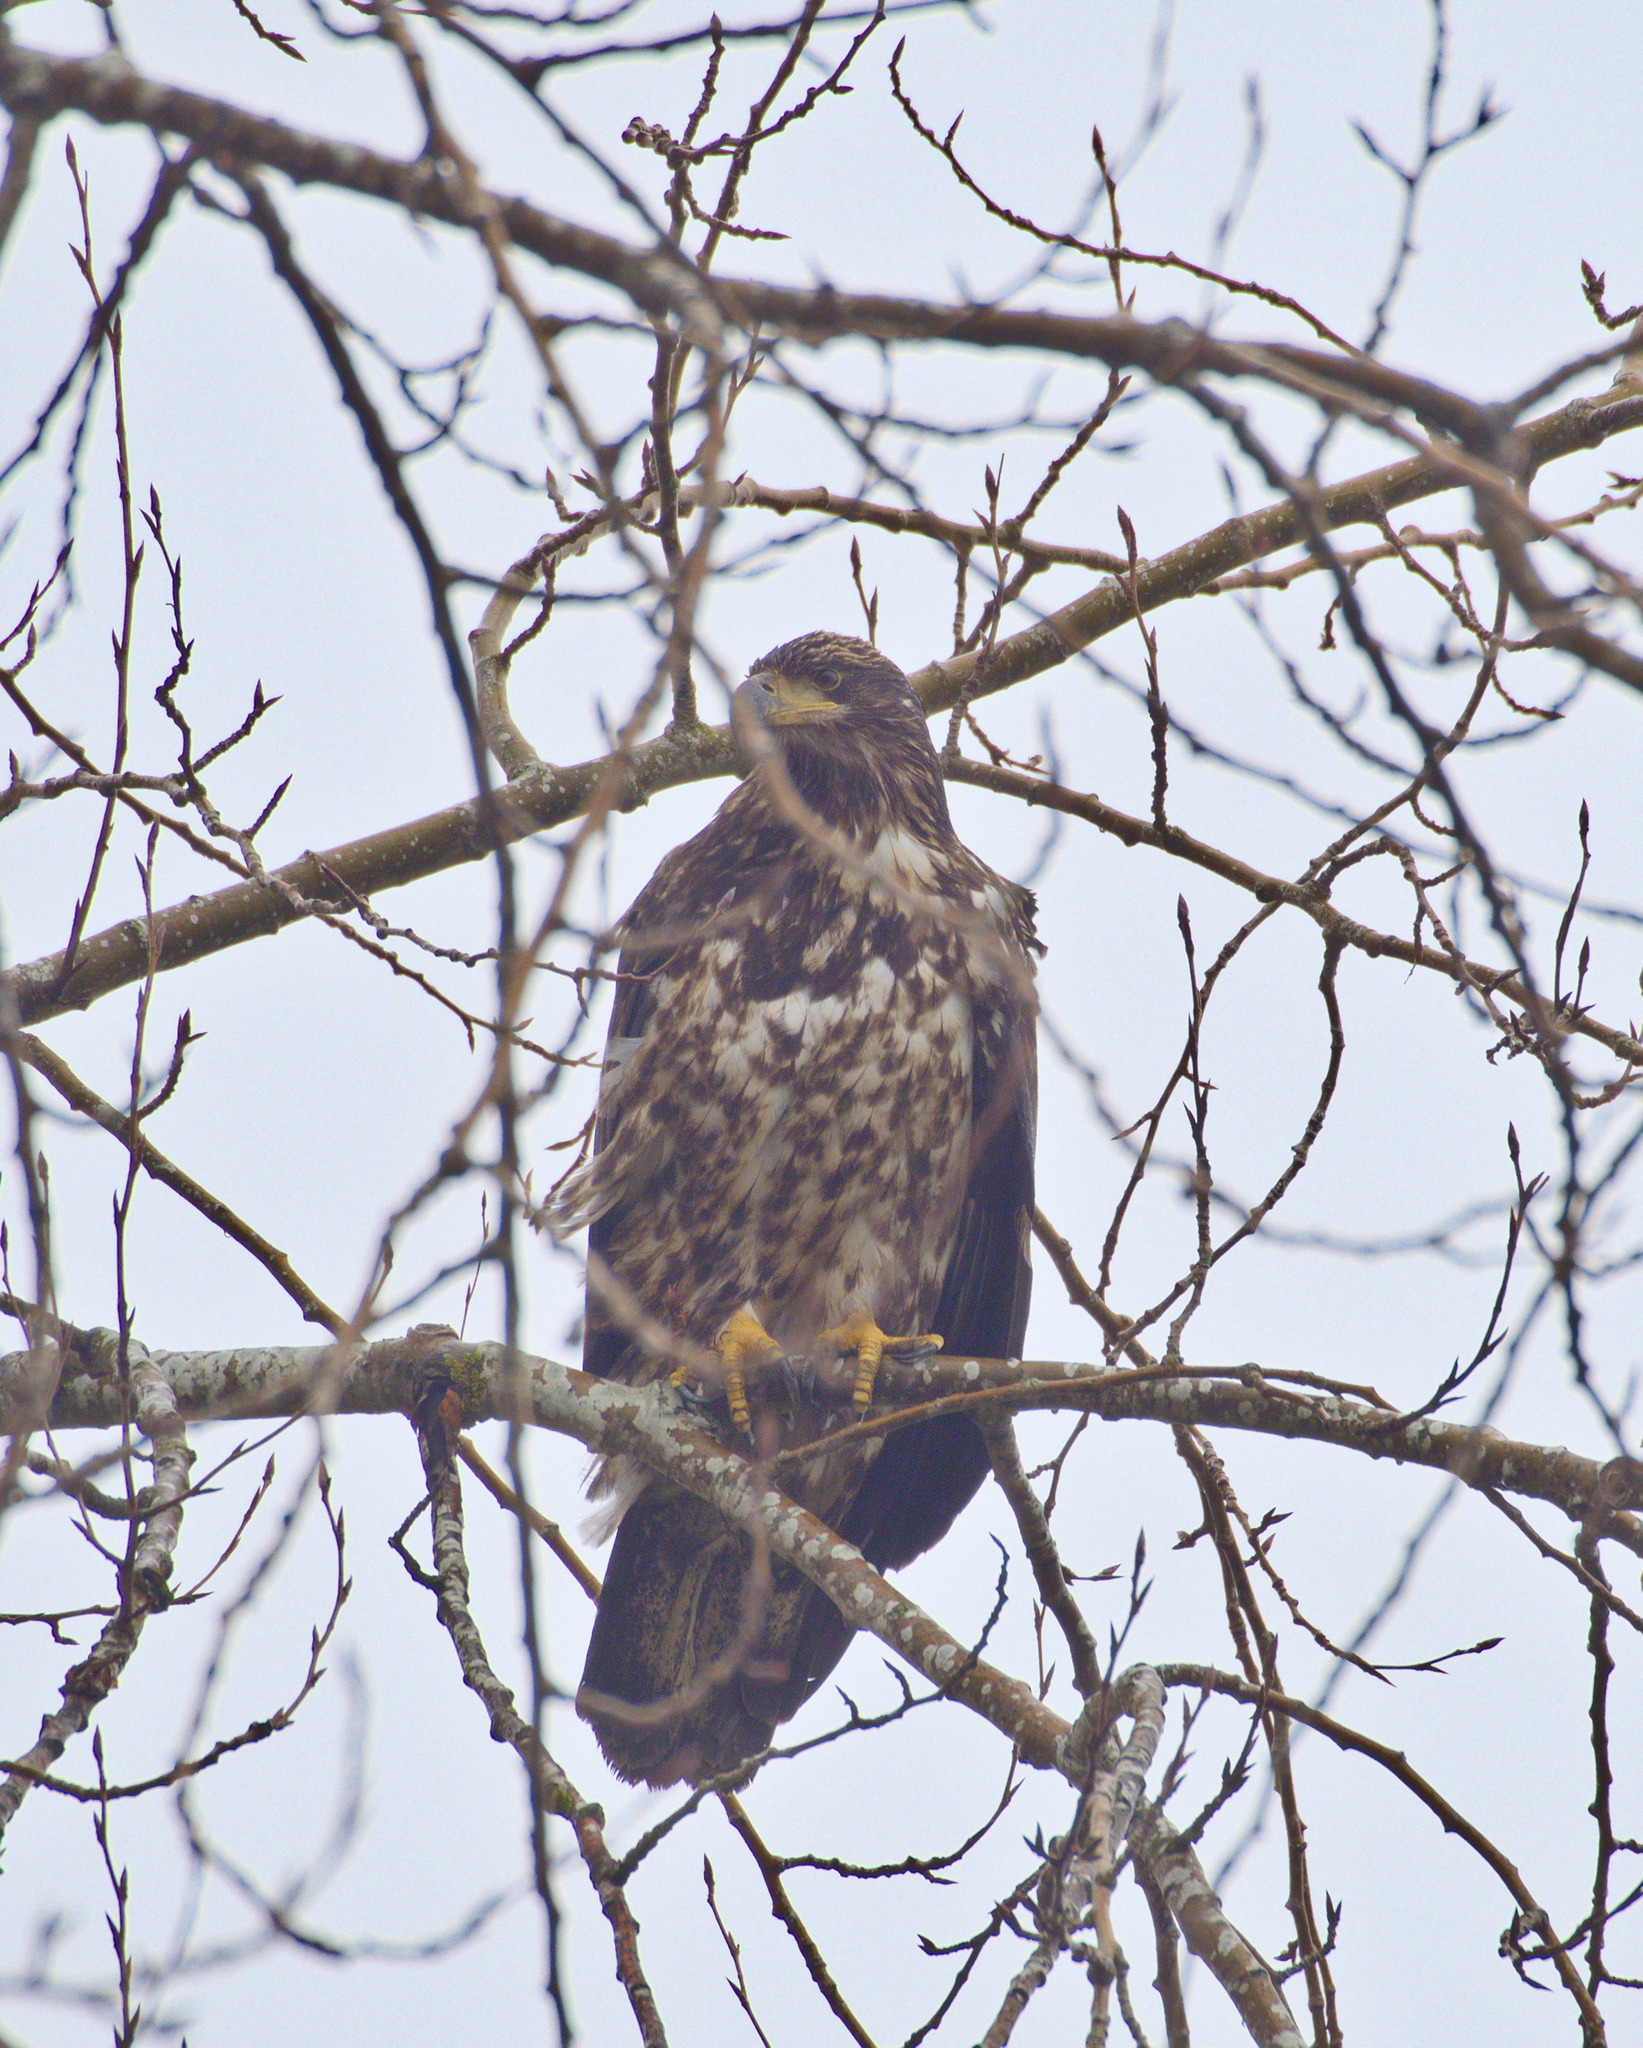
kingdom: Animalia
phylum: Chordata
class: Aves
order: Accipitriformes
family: Accipitridae
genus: Haliaeetus
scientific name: Haliaeetus leucocephalus
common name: Bald eagle
